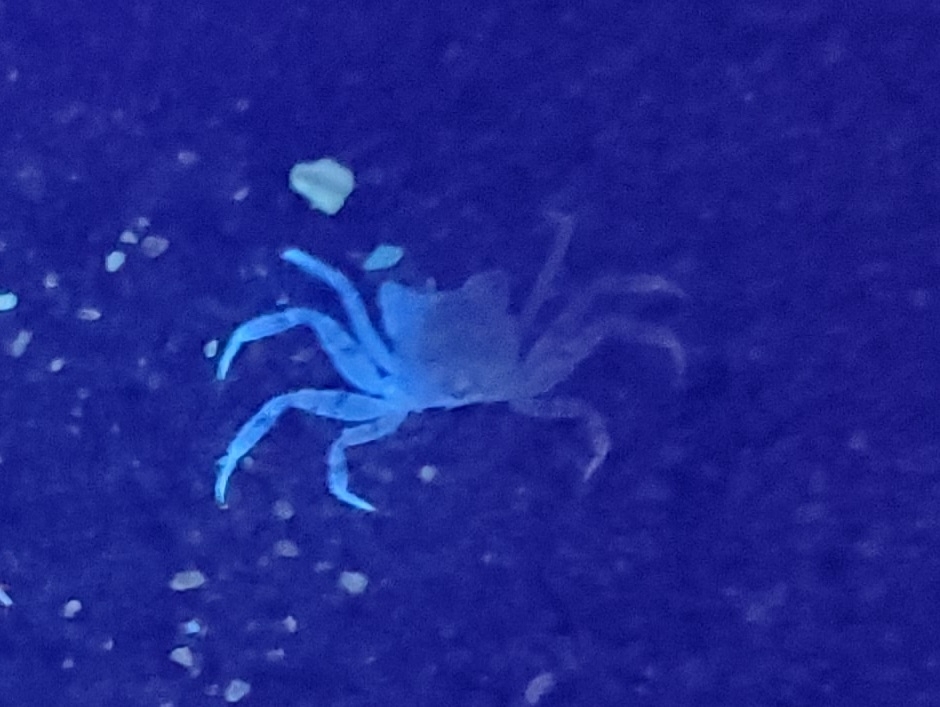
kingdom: Animalia
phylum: Arthropoda
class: Malacostraca
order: Decapoda
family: Ocypodidae
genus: Ocypode
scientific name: Ocypode quadrata
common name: Ghost crab
